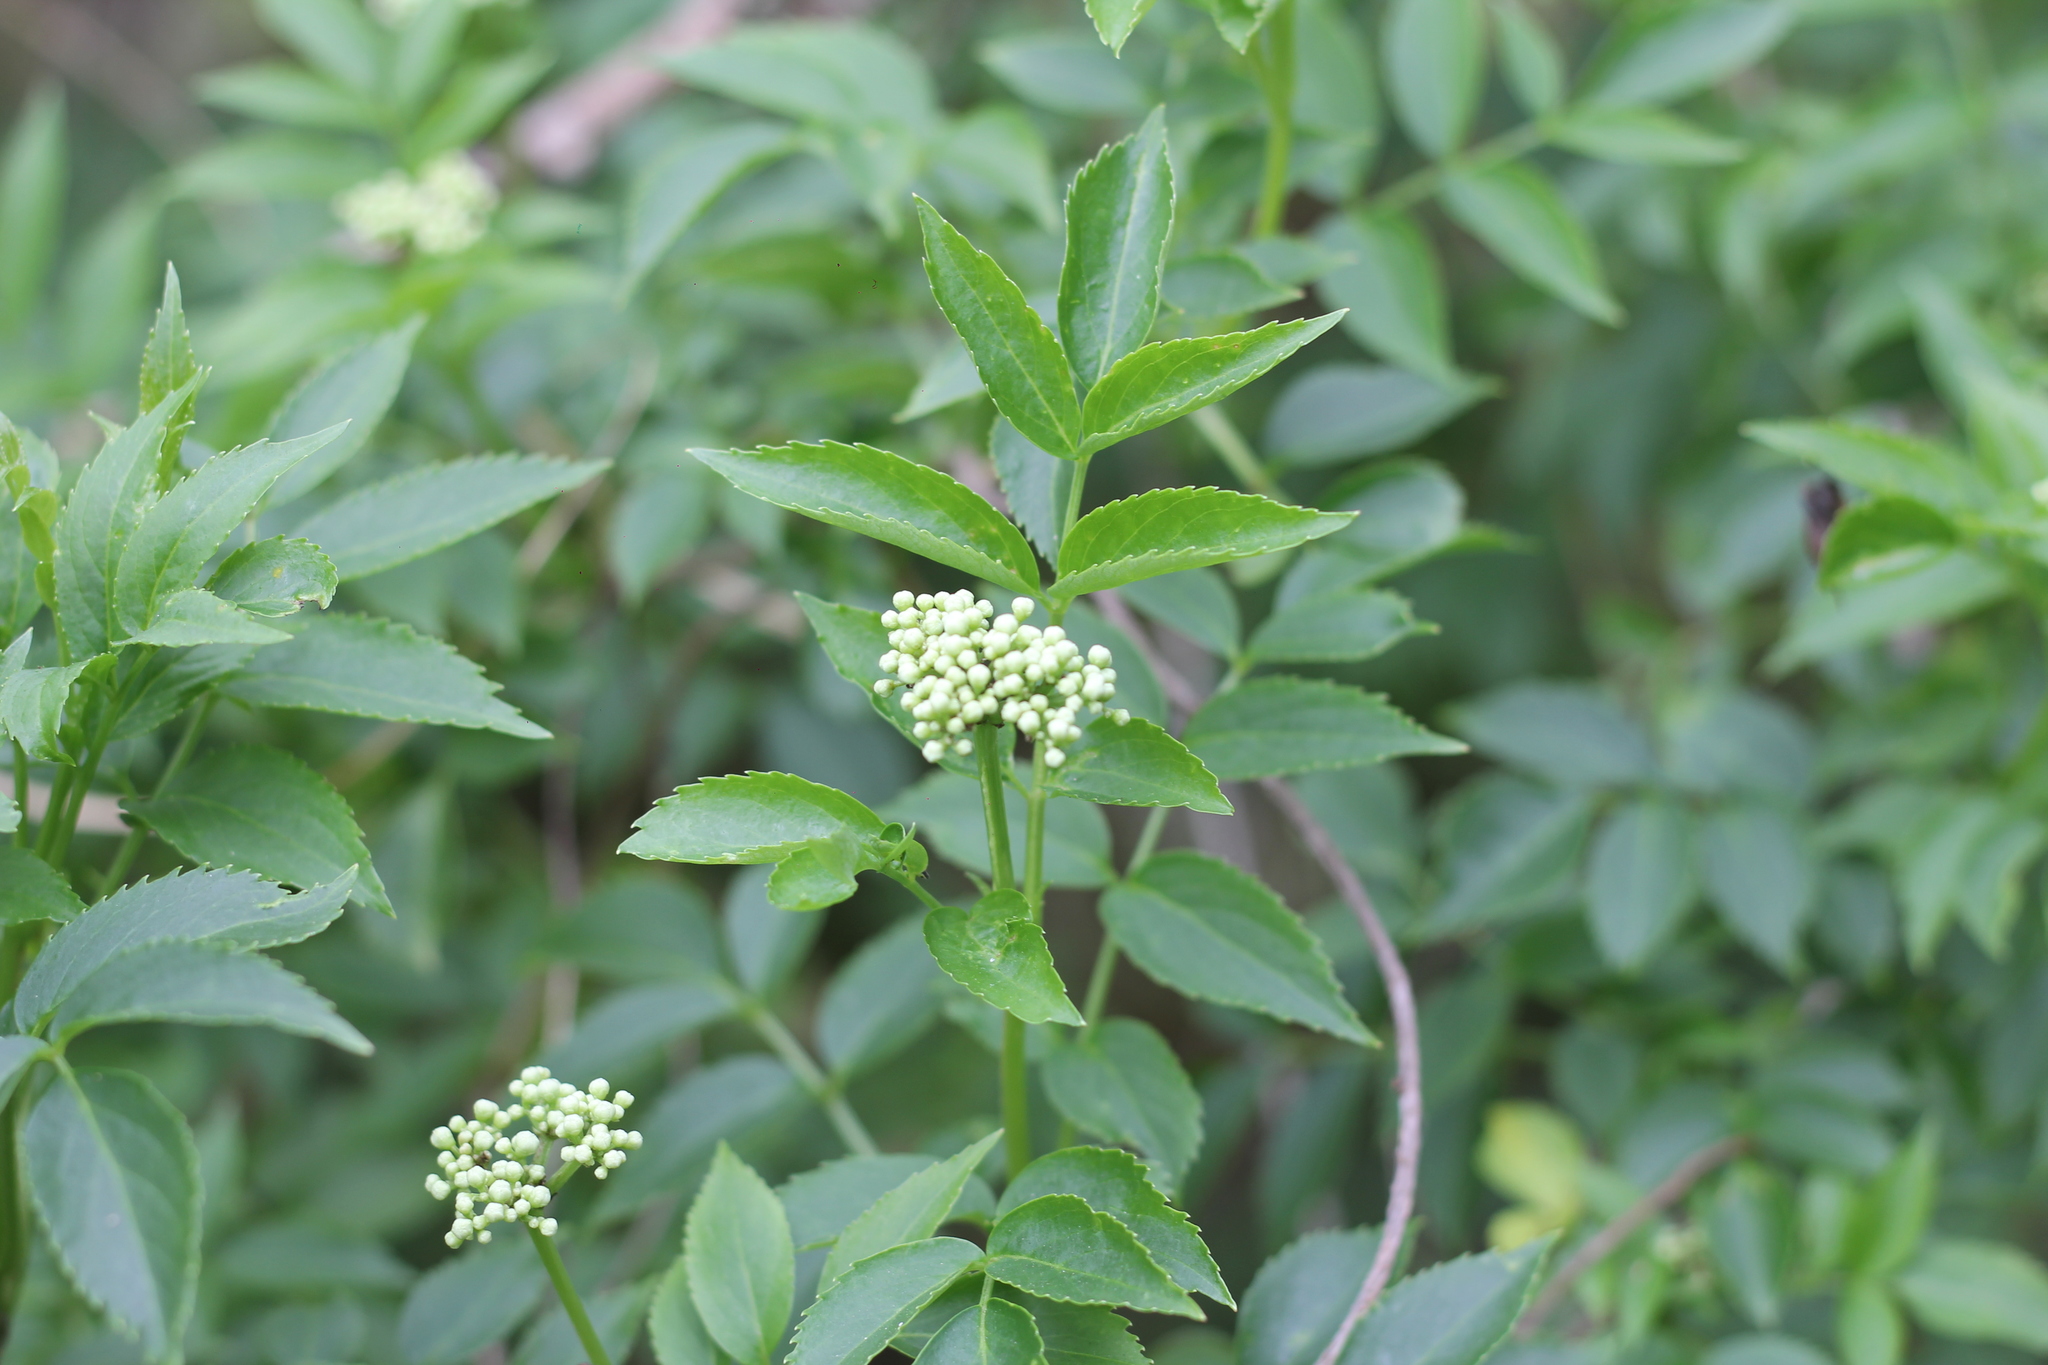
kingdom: Plantae
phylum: Tracheophyta
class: Magnoliopsida
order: Dipsacales
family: Viburnaceae
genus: Sambucus
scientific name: Sambucus australis
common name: Southern elder
